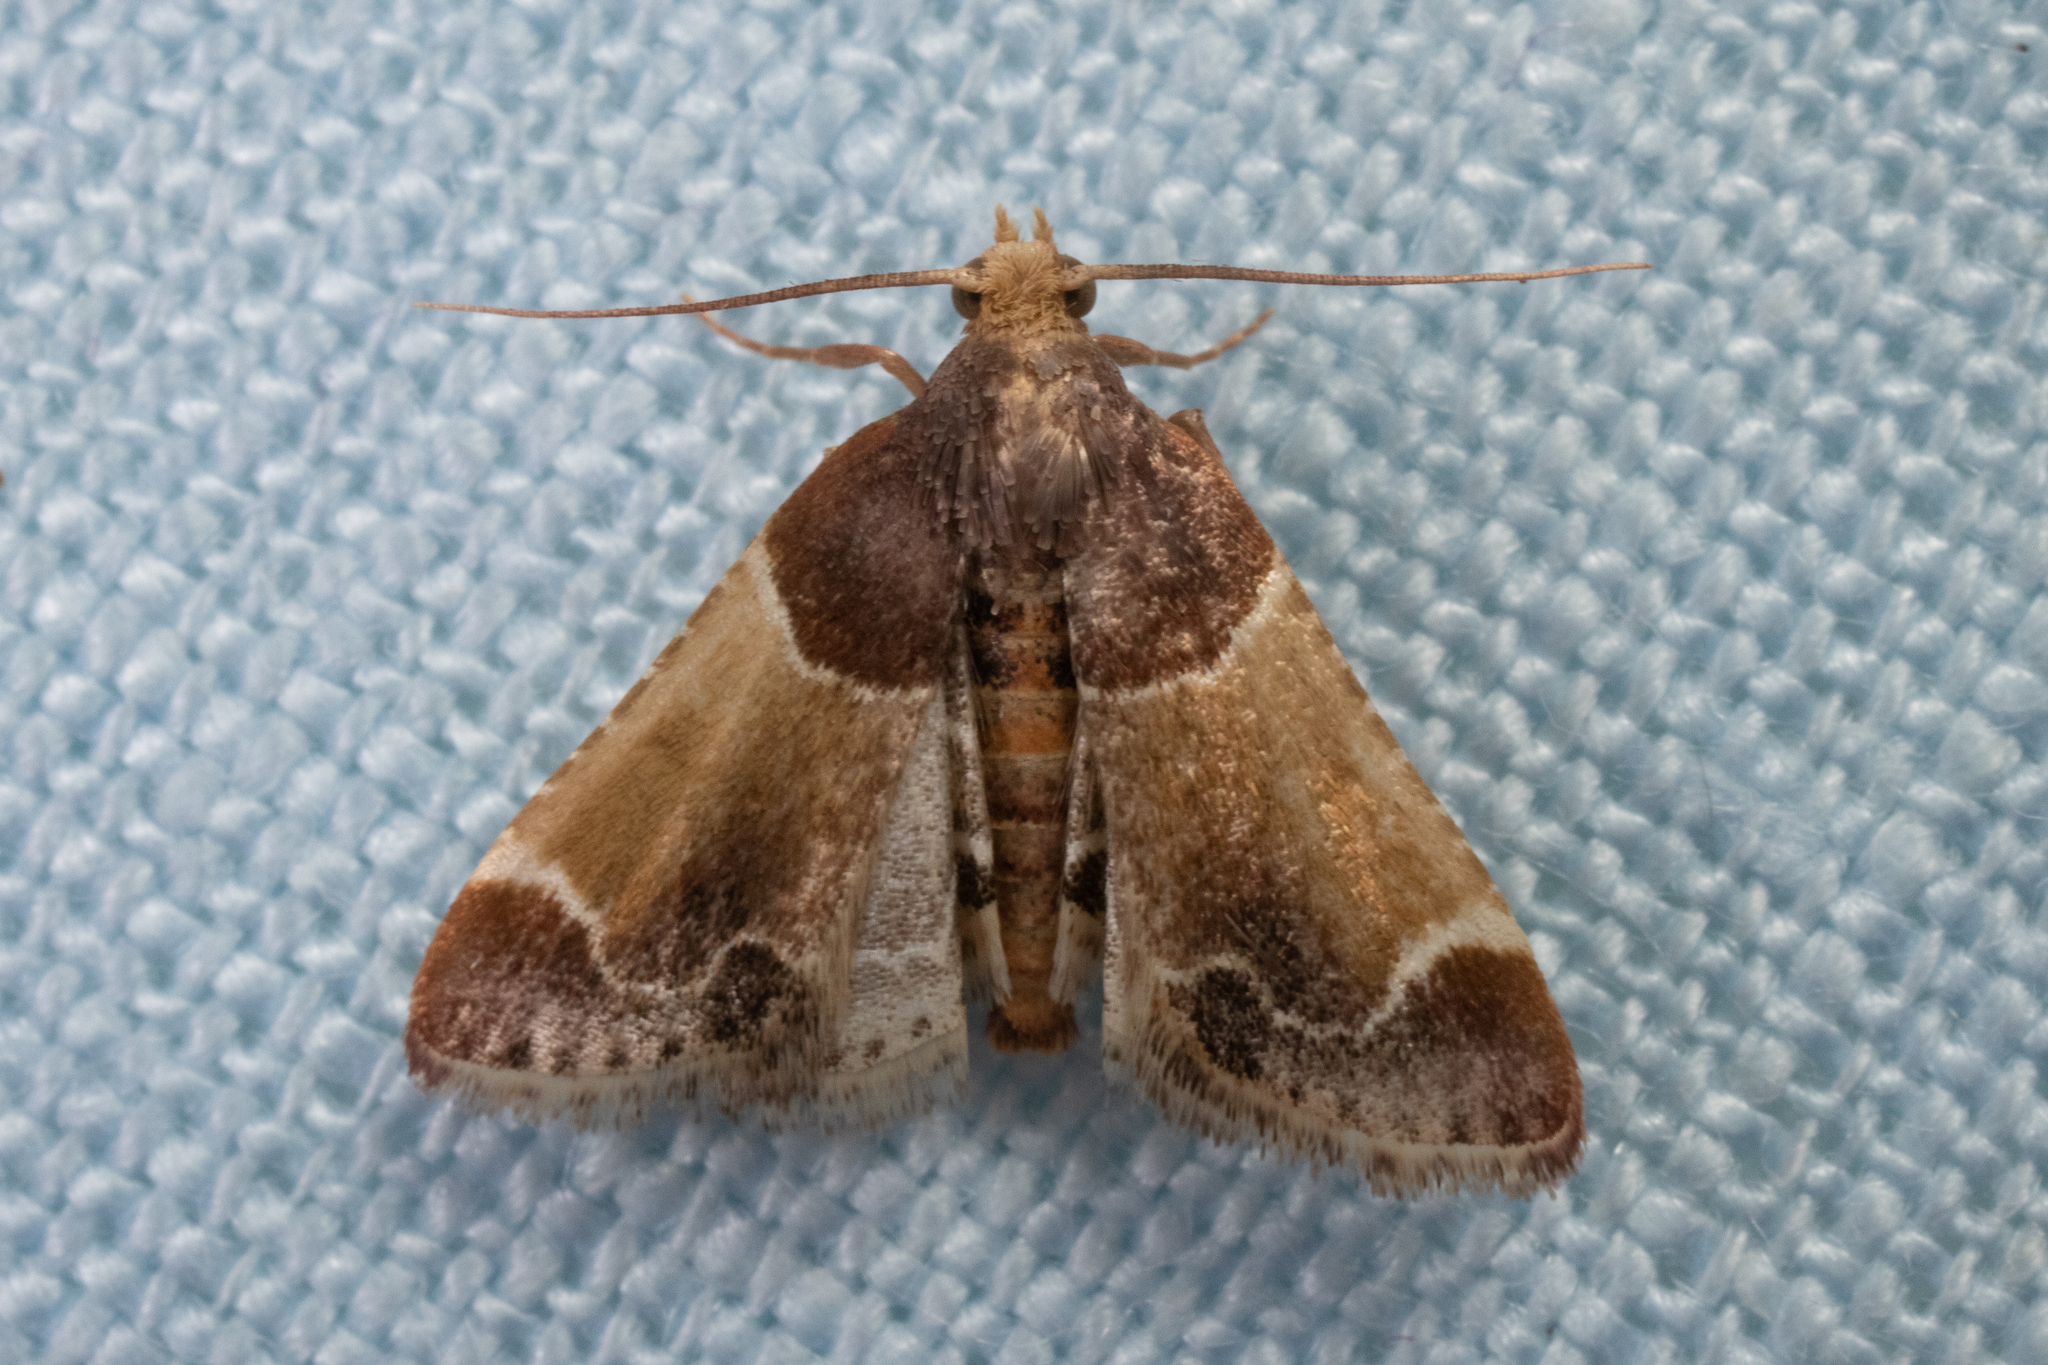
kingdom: Animalia
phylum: Arthropoda
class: Insecta
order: Lepidoptera
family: Pyralidae
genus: Pyralis
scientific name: Pyralis farinalis
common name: Meal moth
